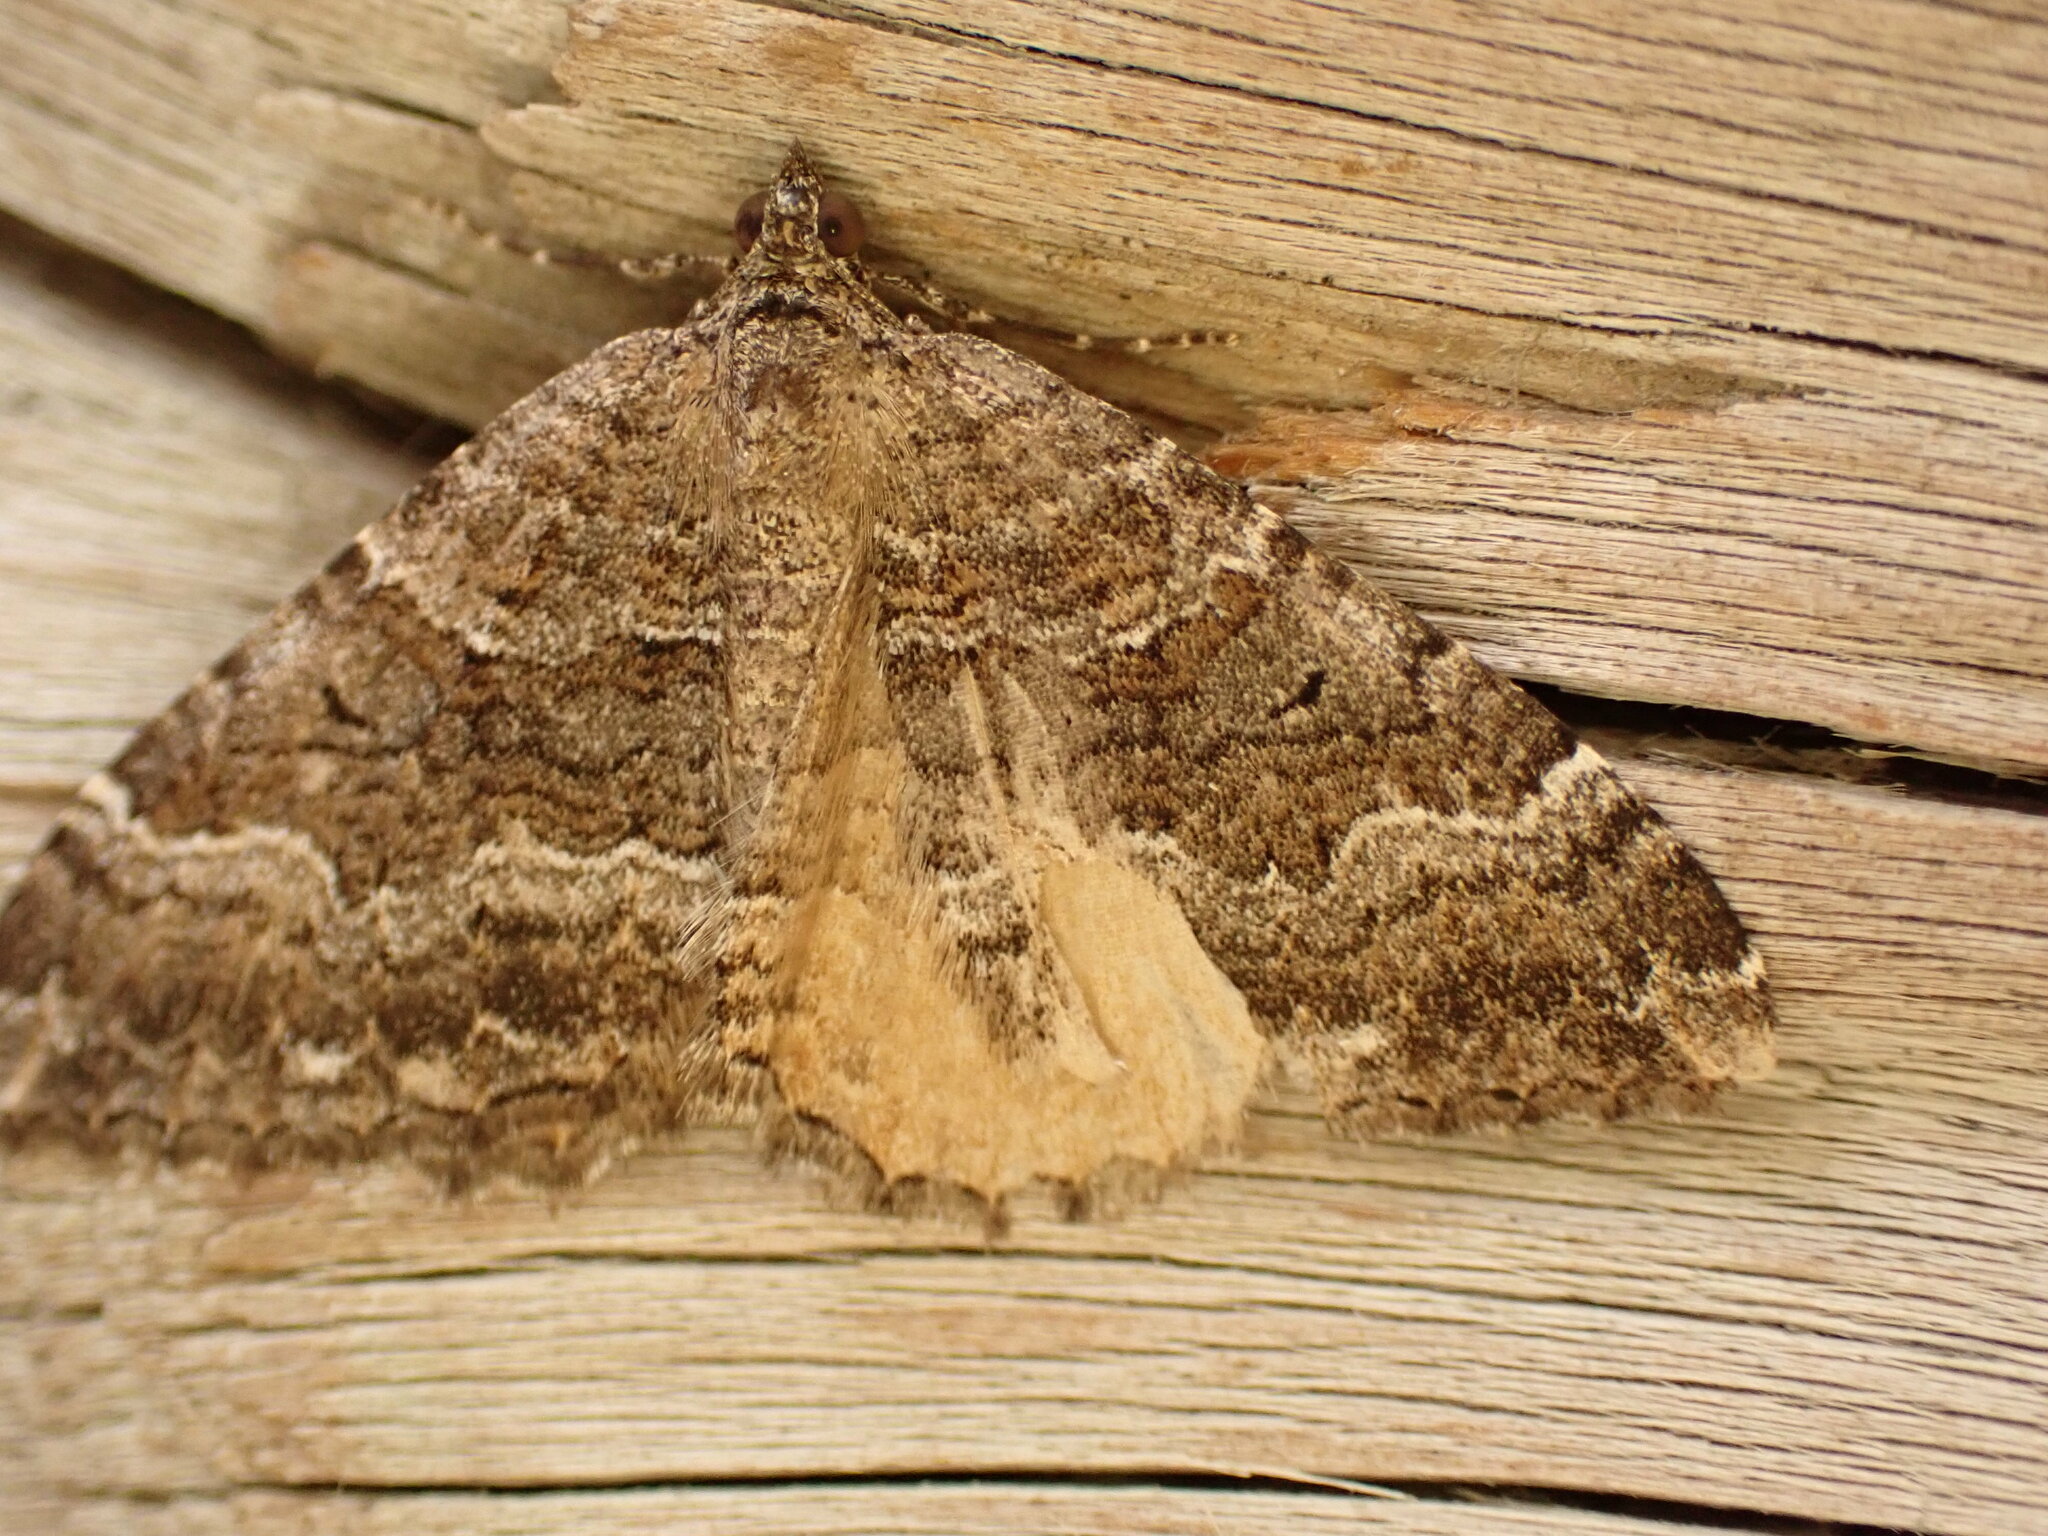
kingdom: Animalia
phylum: Arthropoda
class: Insecta
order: Lepidoptera
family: Geometridae
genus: Hydriomena
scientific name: Hydriomena deltoidata
